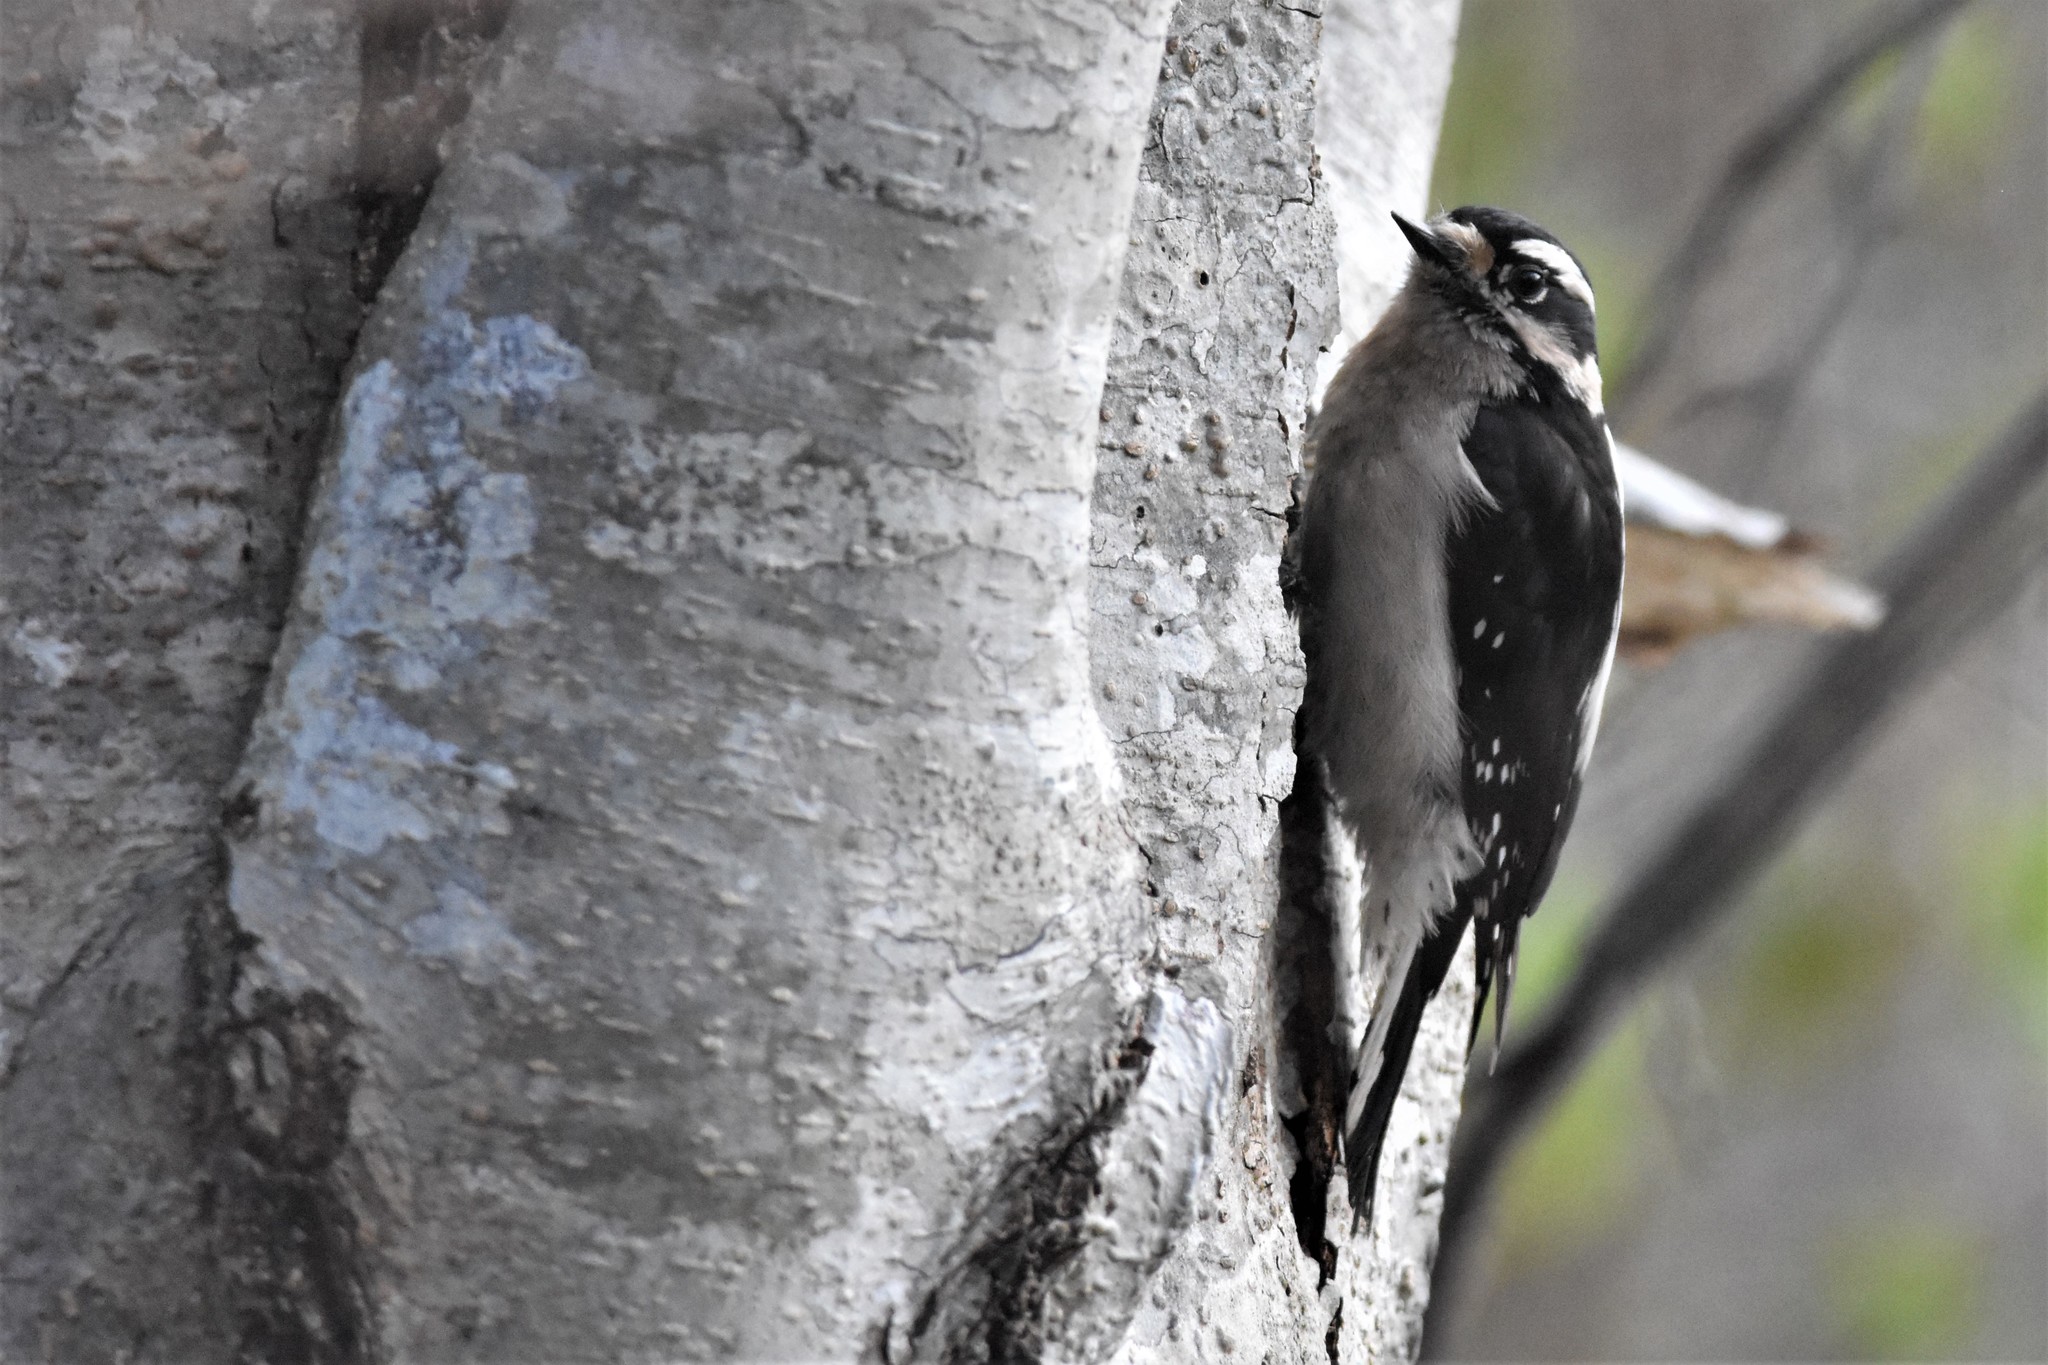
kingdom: Animalia
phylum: Chordata
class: Aves
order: Piciformes
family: Picidae
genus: Dryobates
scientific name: Dryobates pubescens
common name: Downy woodpecker
